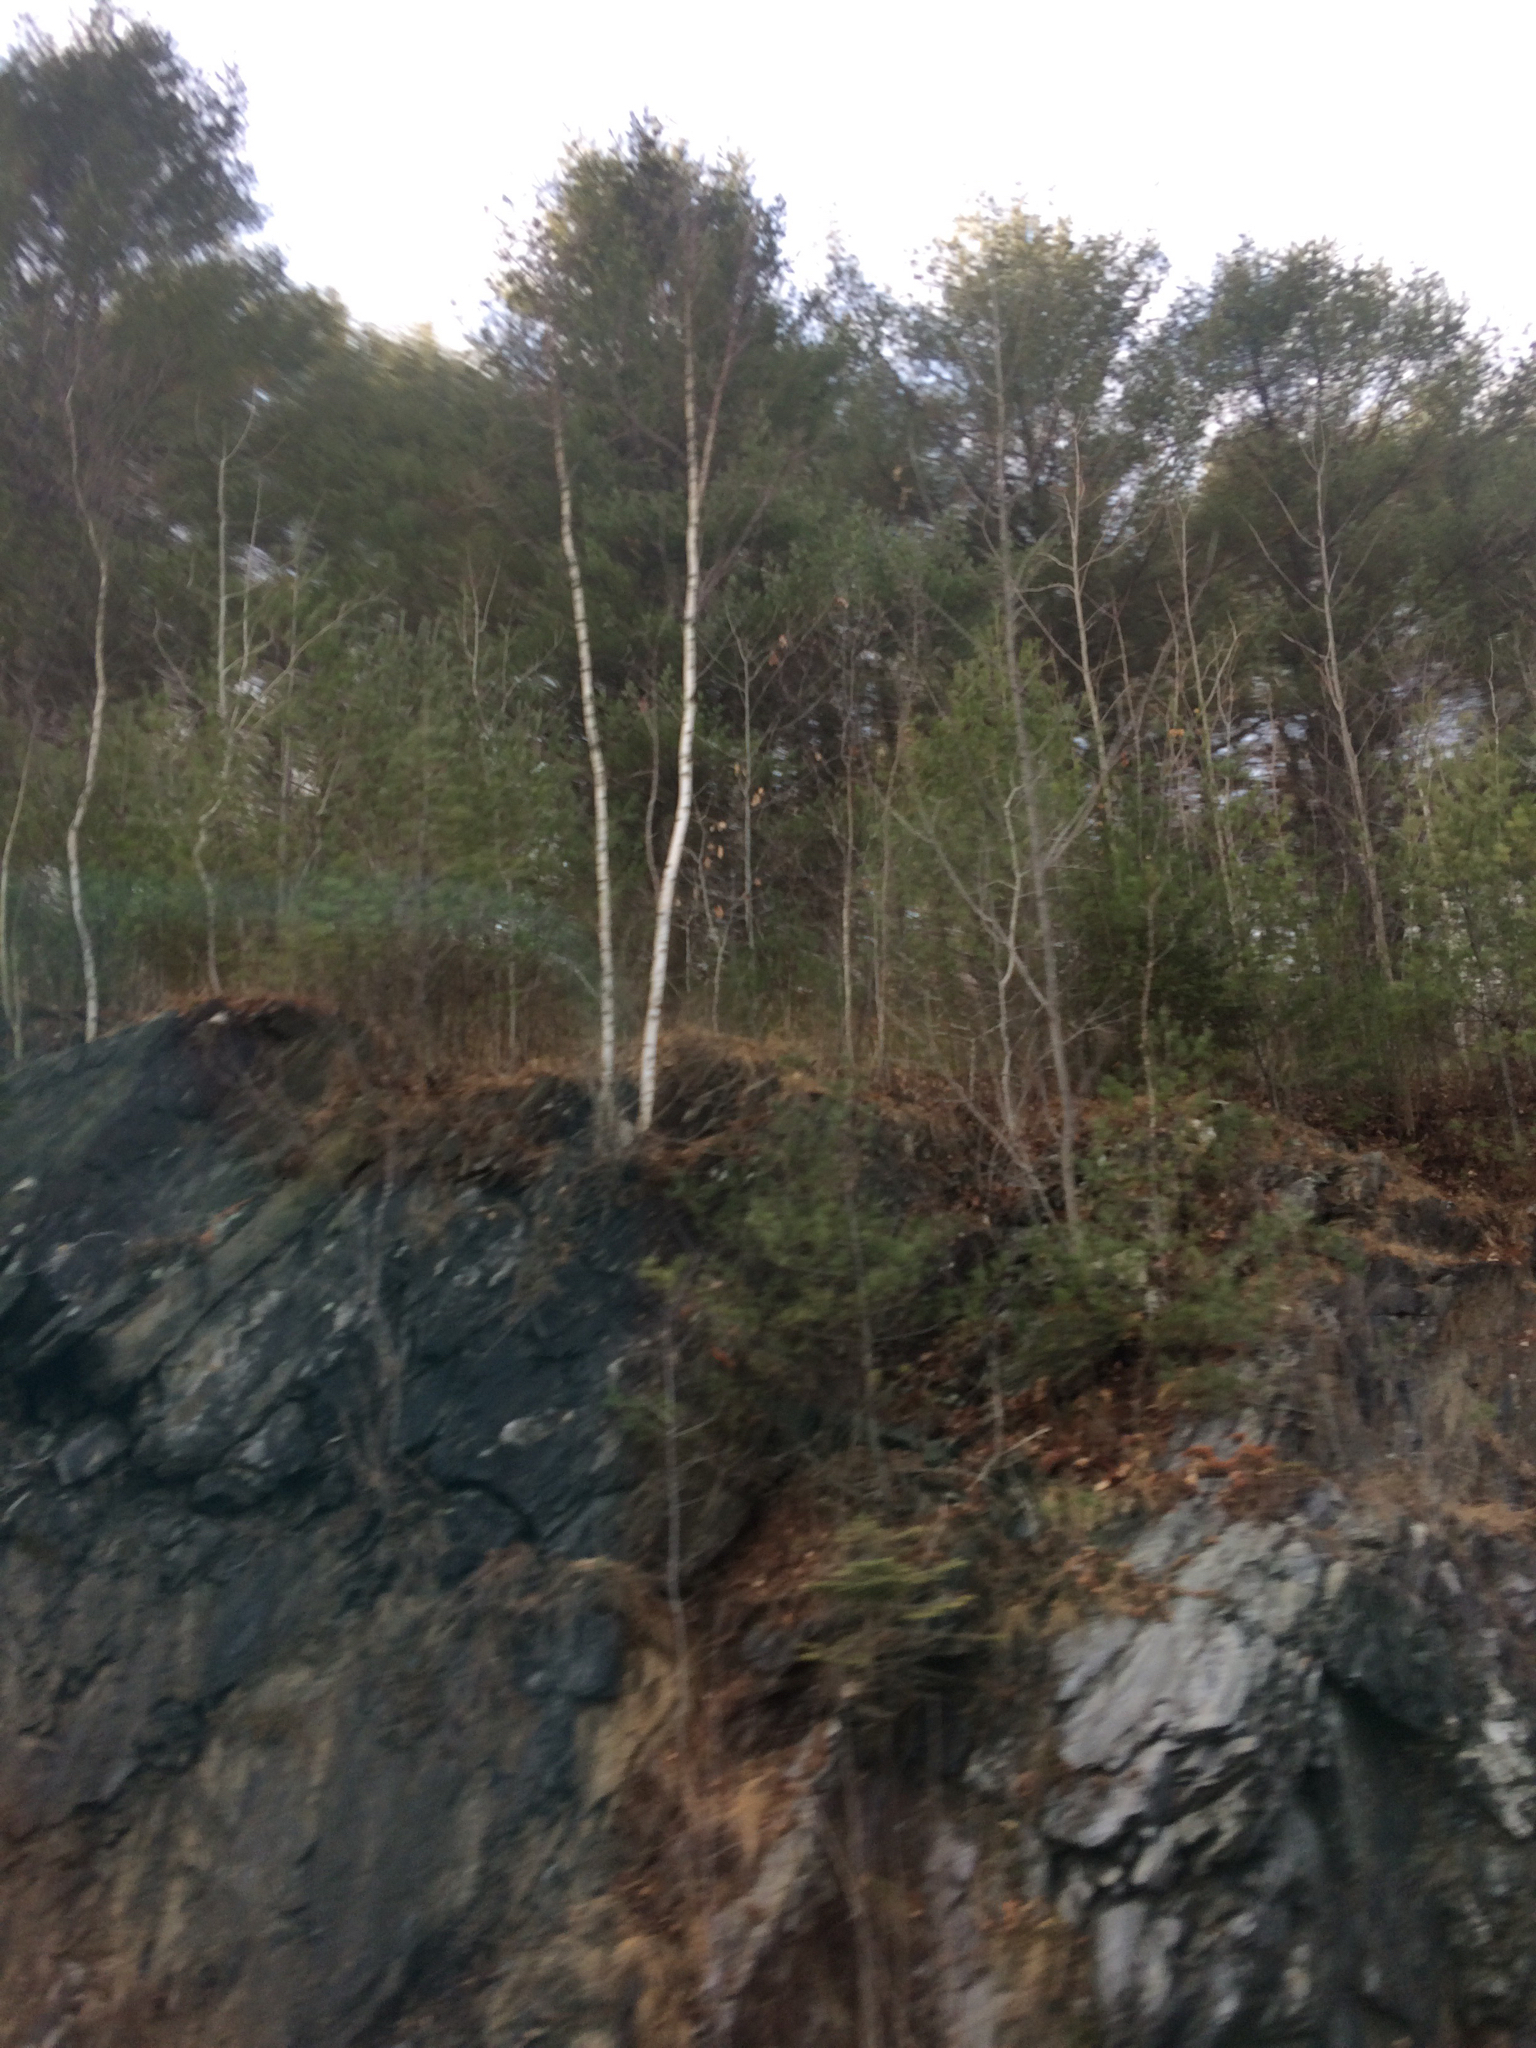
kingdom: Plantae
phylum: Tracheophyta
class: Magnoliopsida
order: Fagales
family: Betulaceae
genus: Betula
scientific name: Betula papyrifera
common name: Paper birch
